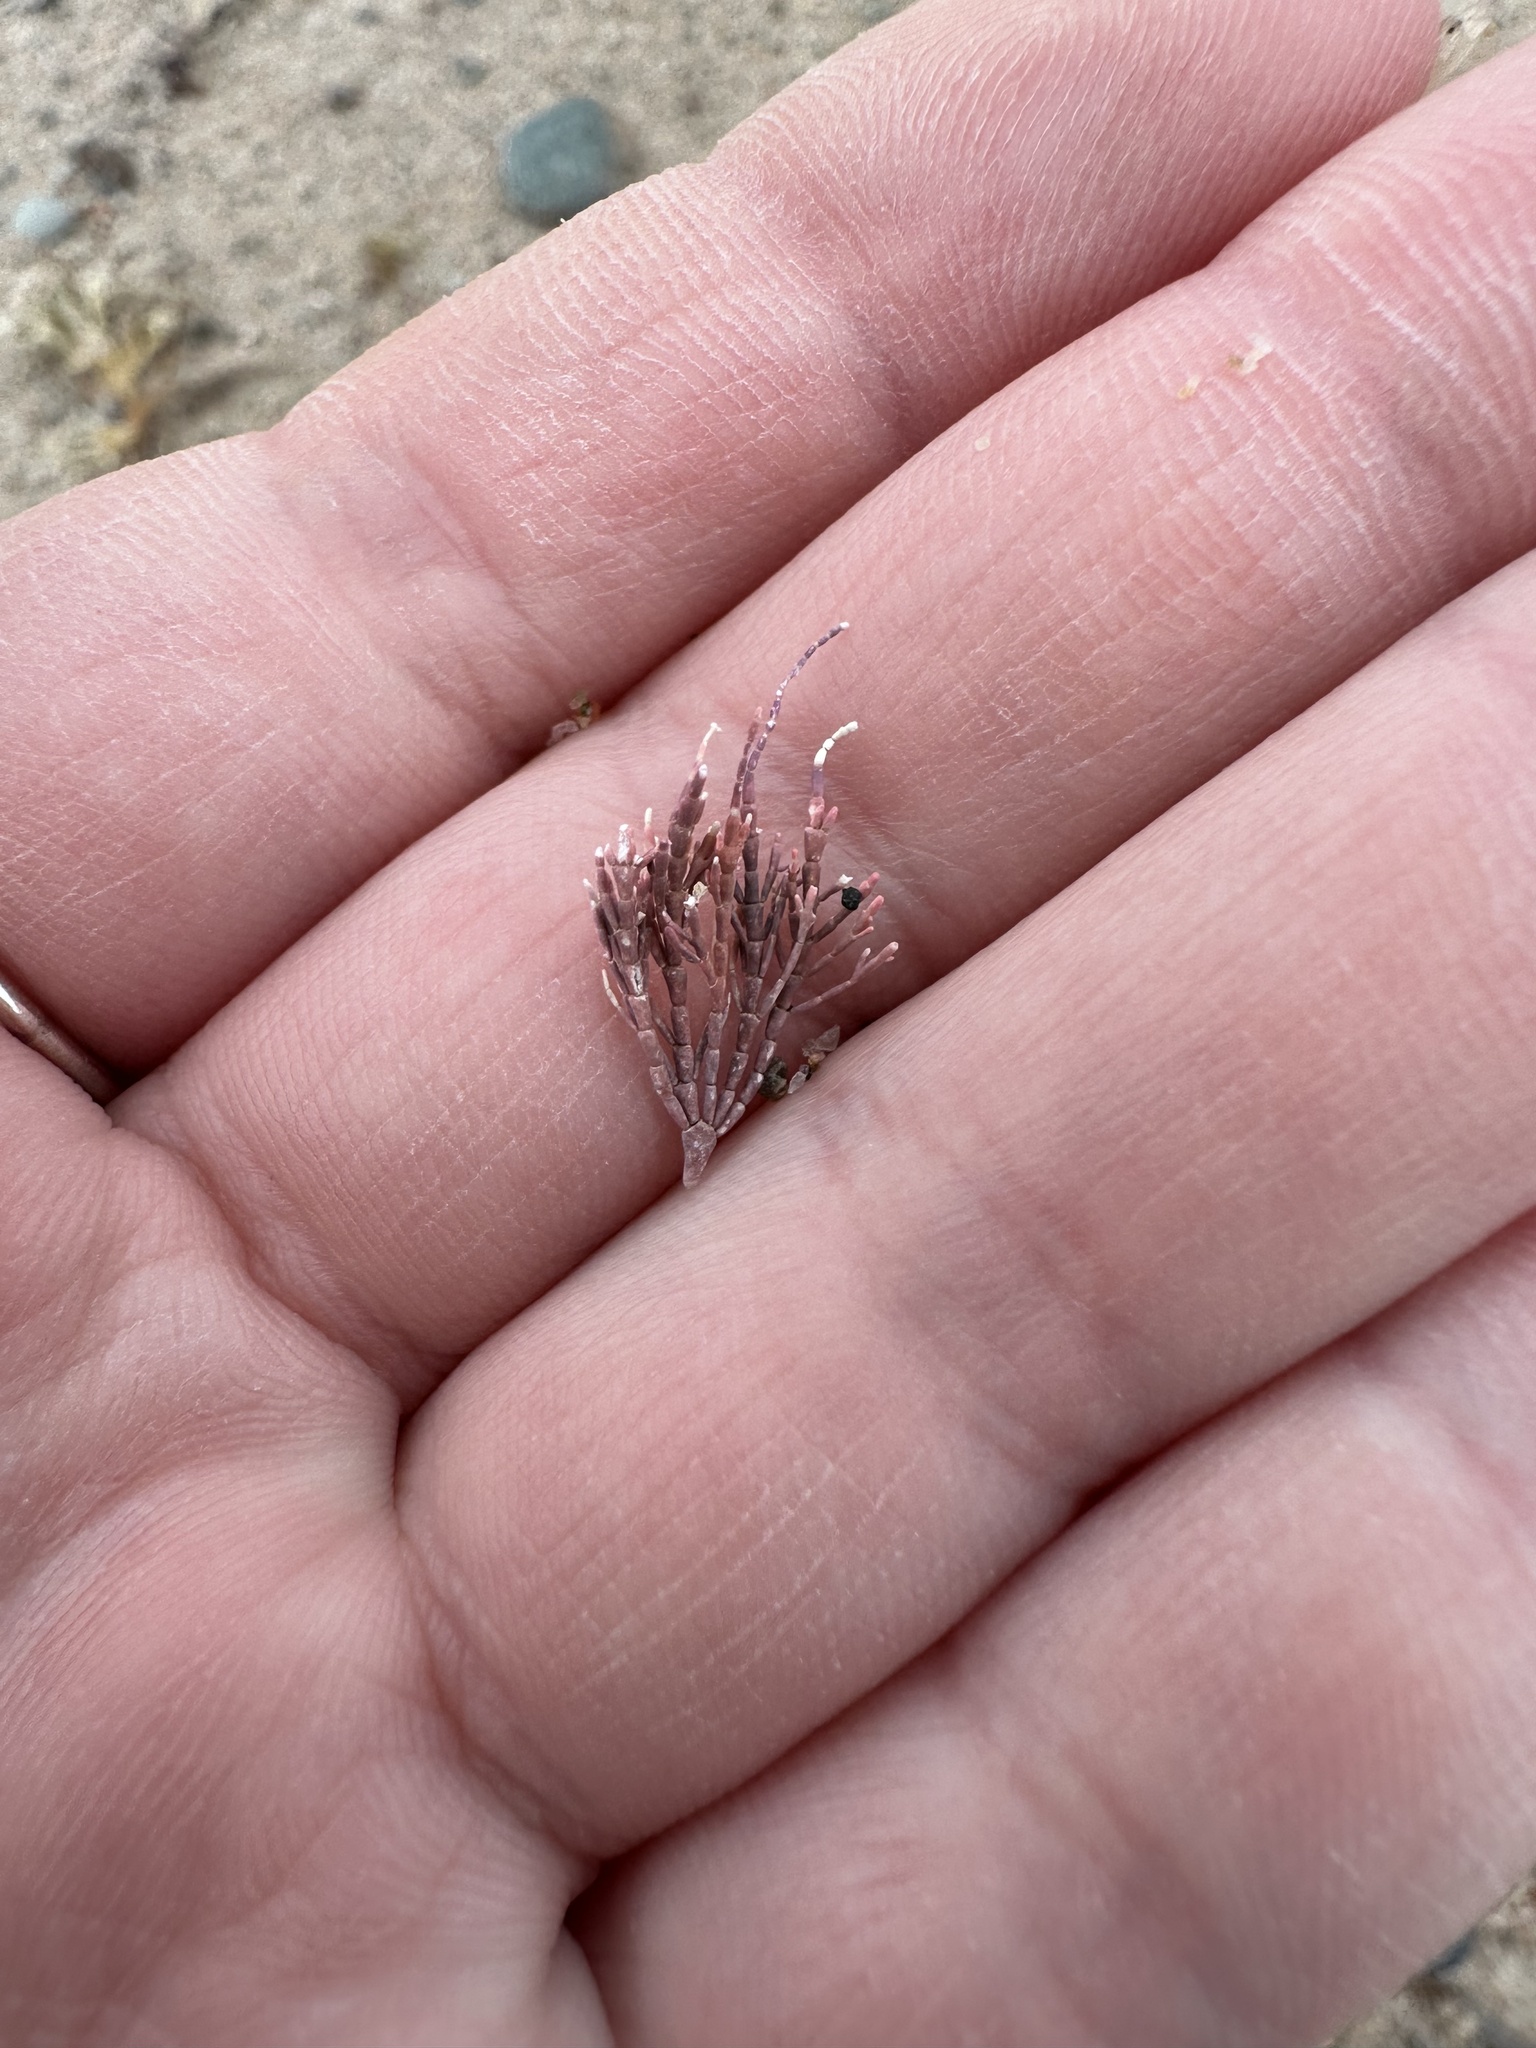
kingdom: Plantae
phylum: Rhodophyta
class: Florideophyceae
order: Corallinales
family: Corallinaceae
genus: Corallina
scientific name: Corallina officinalis
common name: Coral weed
